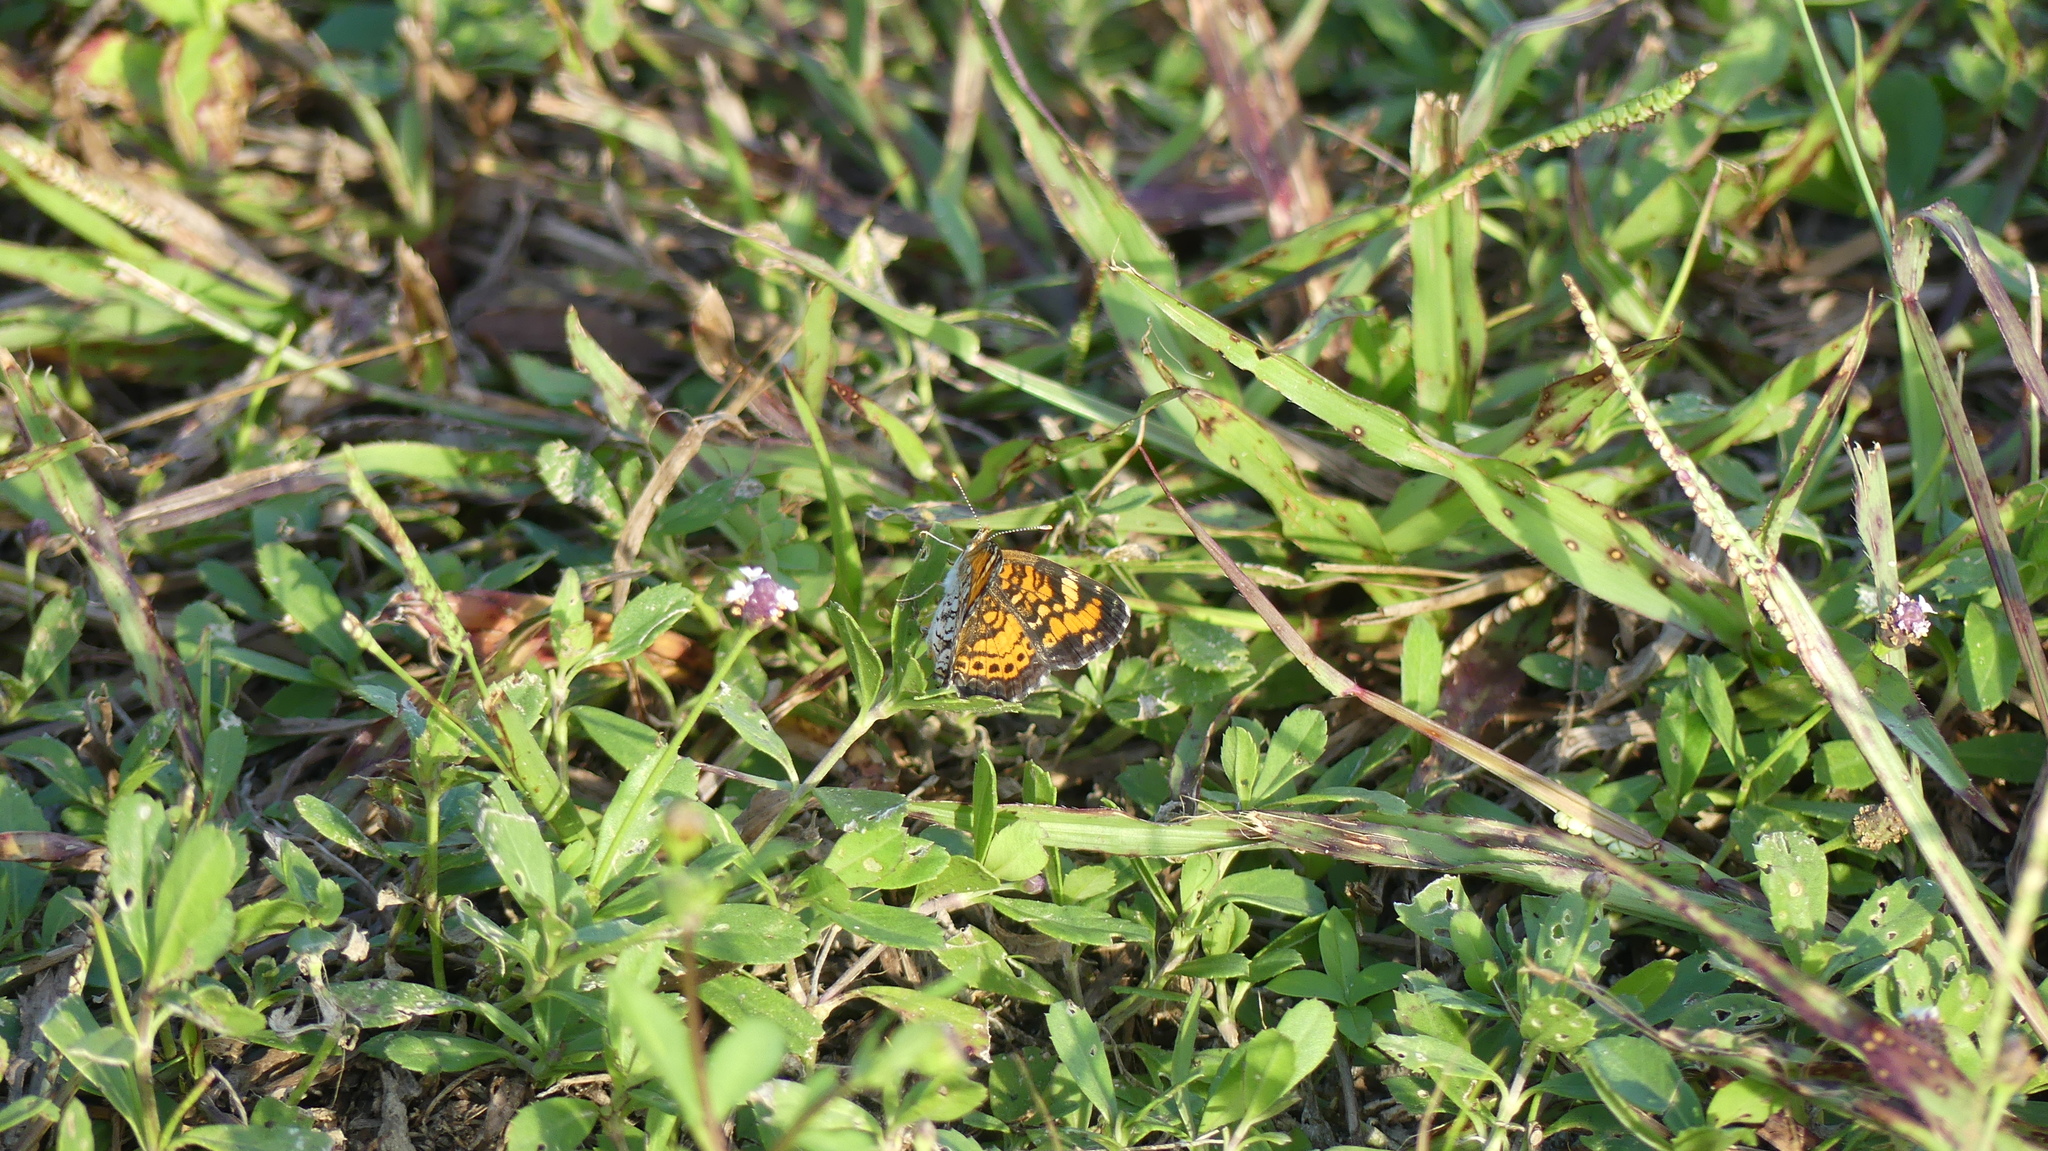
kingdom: Animalia
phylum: Arthropoda
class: Insecta
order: Lepidoptera
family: Nymphalidae
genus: Phyciodes
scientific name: Phyciodes phaon
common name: Phaon crescent
